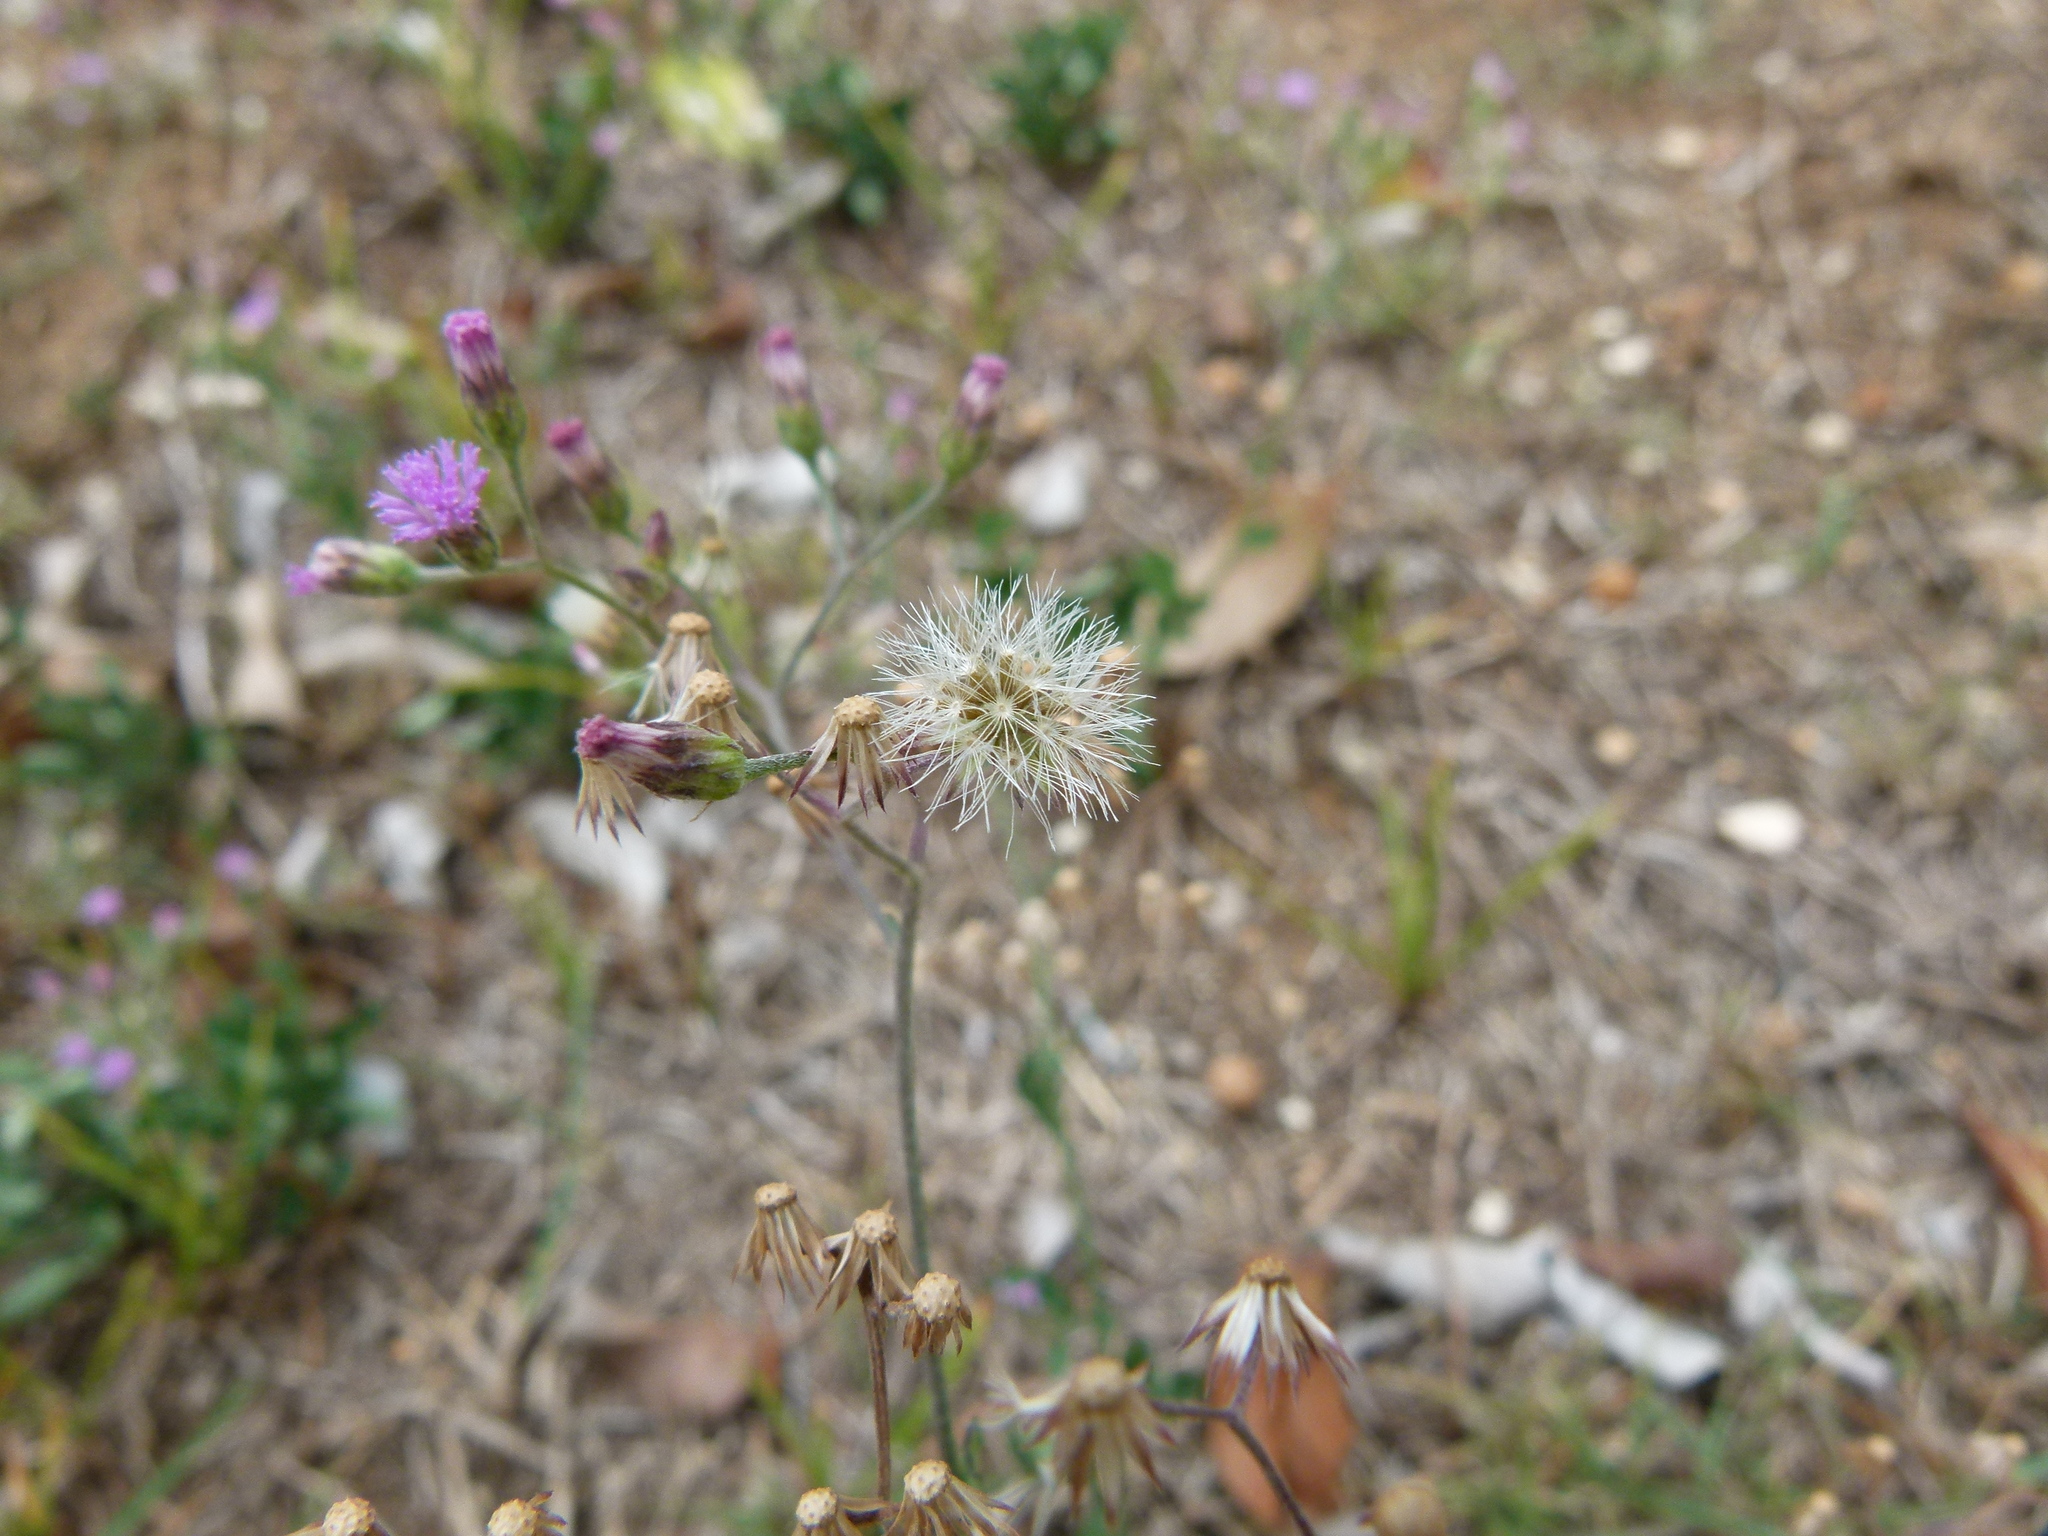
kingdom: Plantae
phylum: Tracheophyta
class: Magnoliopsida
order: Asterales
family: Asteraceae
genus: Cyanthillium
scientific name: Cyanthillium cinereum
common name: Little ironweed
